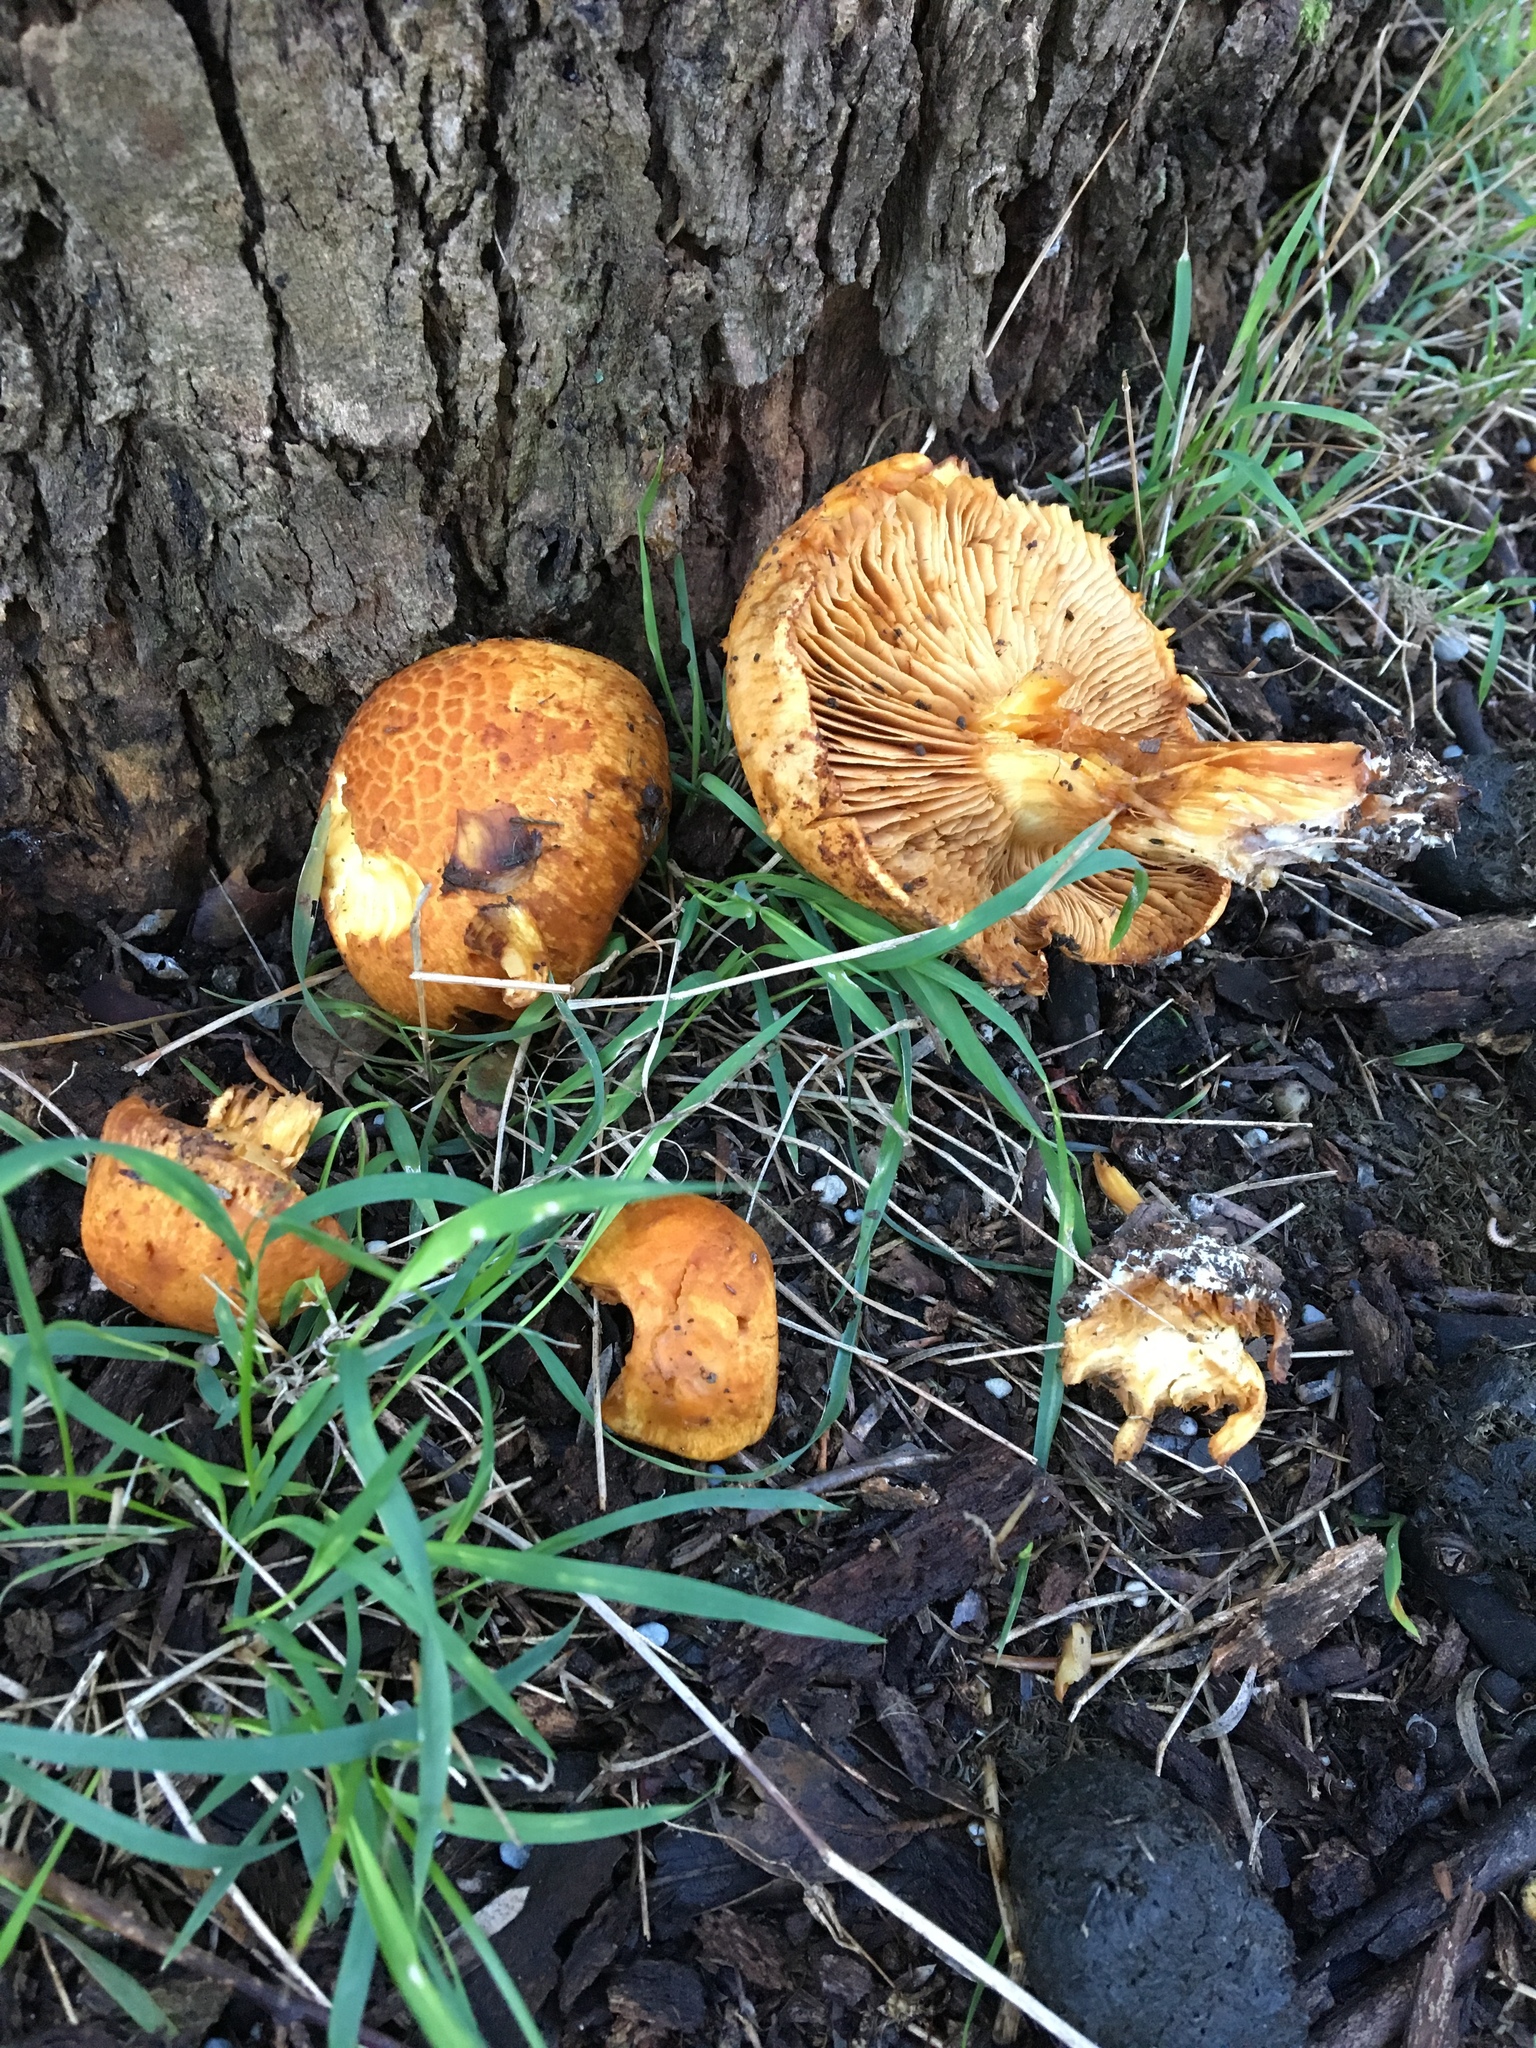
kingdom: Fungi
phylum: Basidiomycota
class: Agaricomycetes
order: Agaricales
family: Hymenogastraceae
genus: Gymnopilus
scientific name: Gymnopilus junonius
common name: Spectacular rustgill
